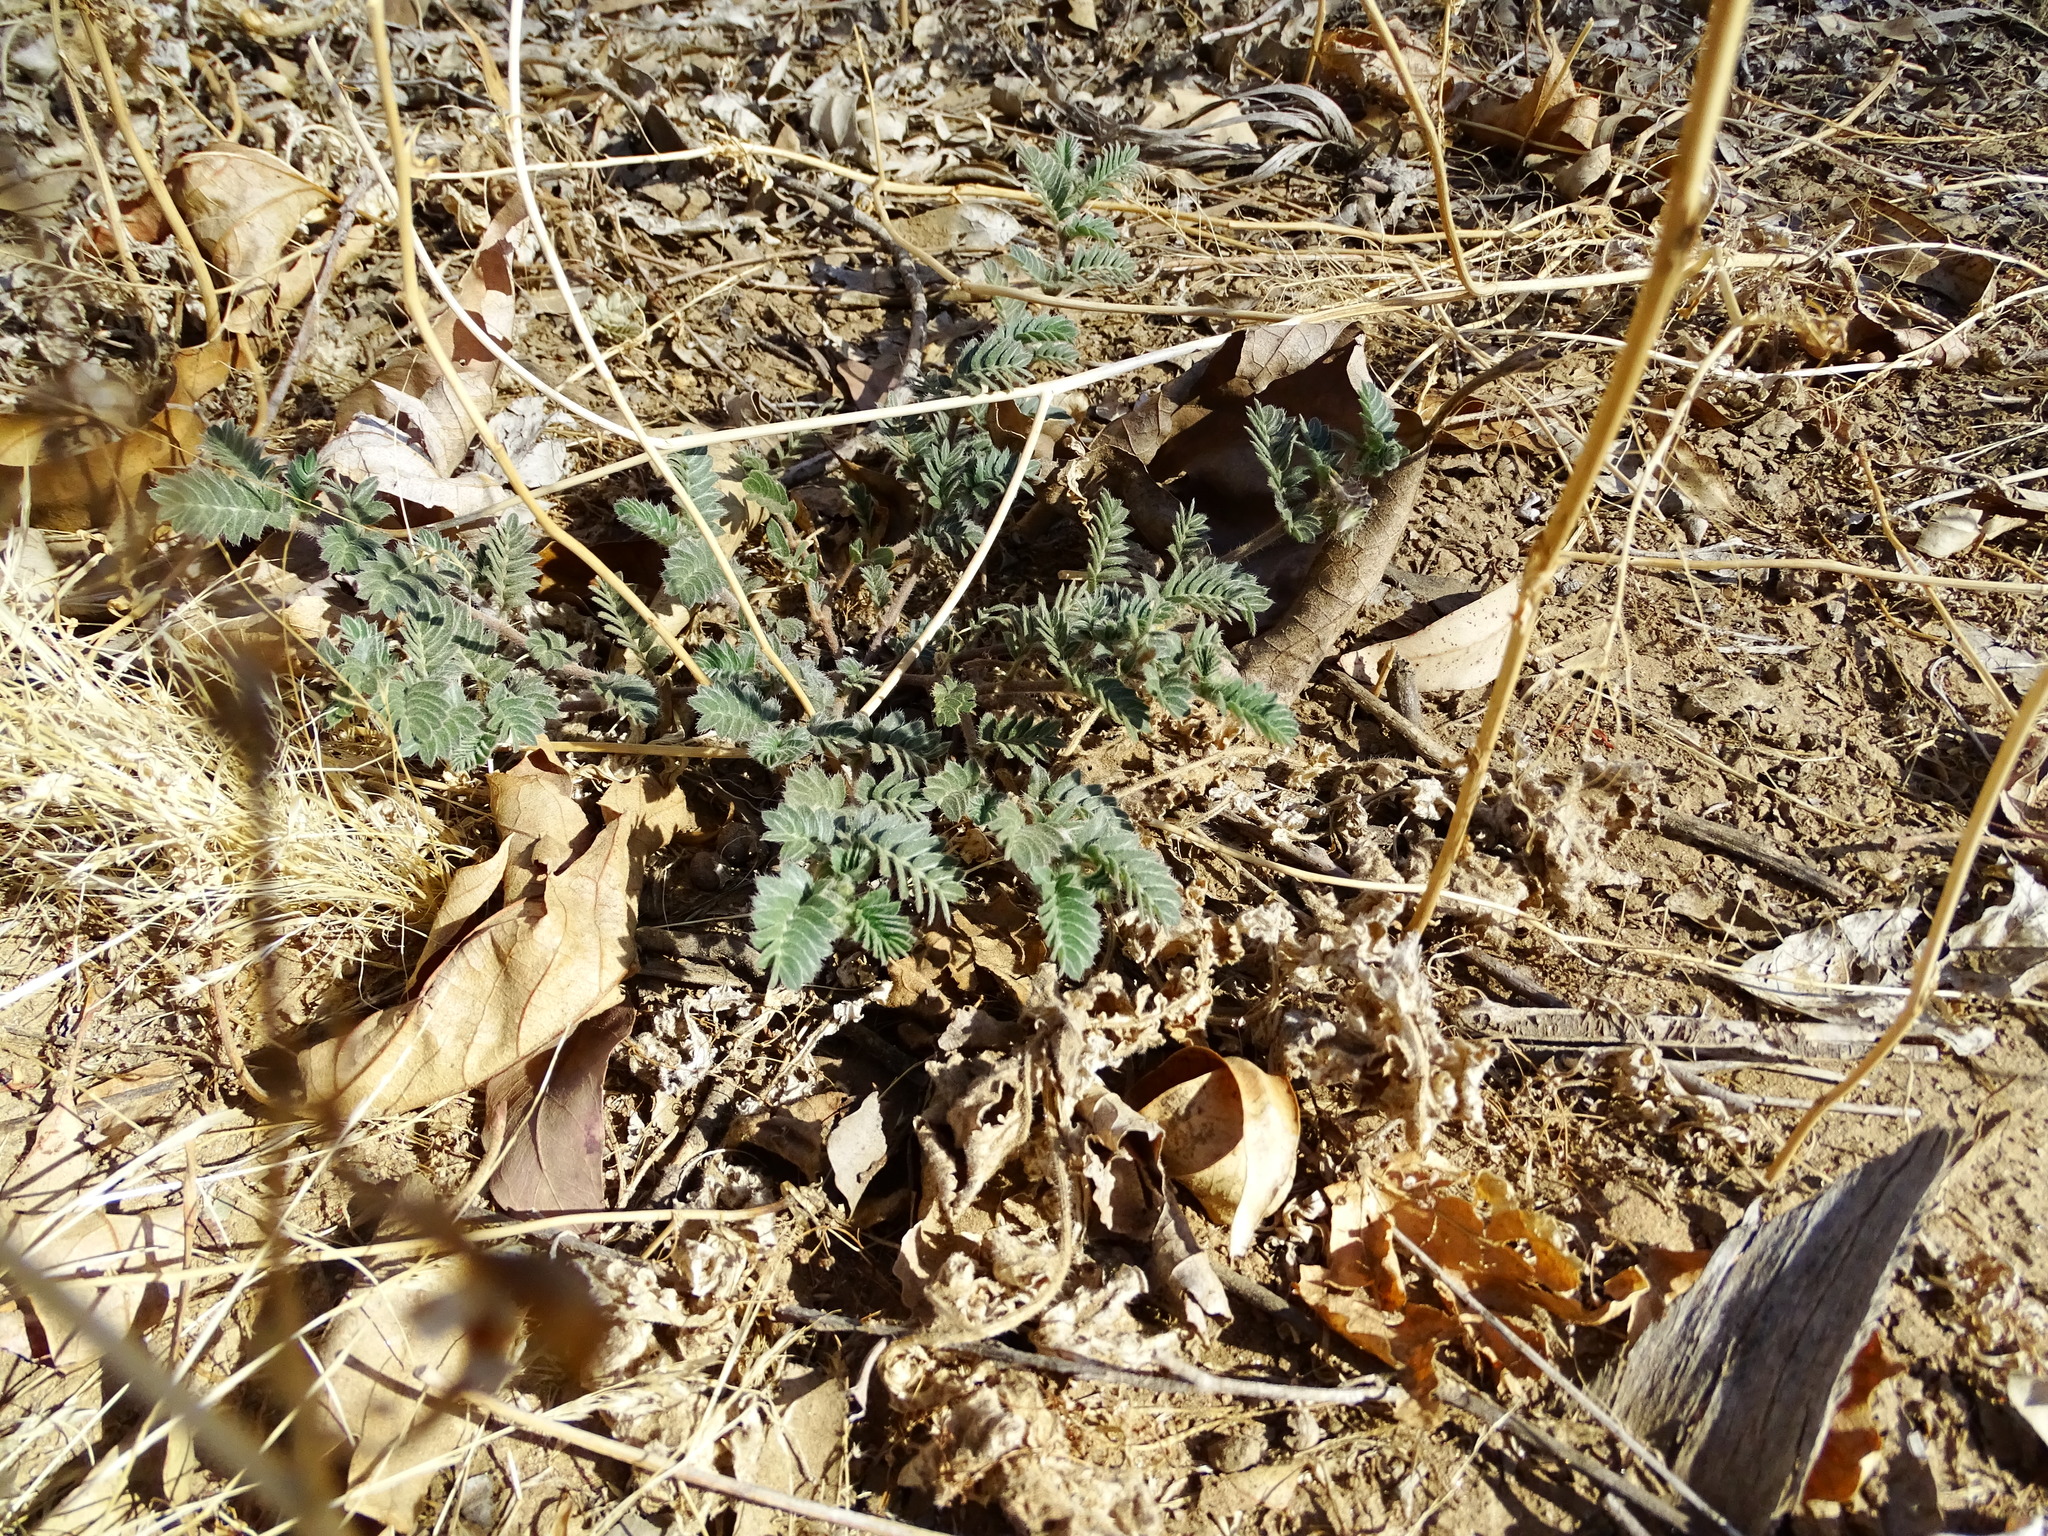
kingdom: Plantae
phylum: Tracheophyta
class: Magnoliopsida
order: Zygophyllales
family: Zygophyllaceae
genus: Tribulus
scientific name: Tribulus terrestris
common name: Puncturevine
